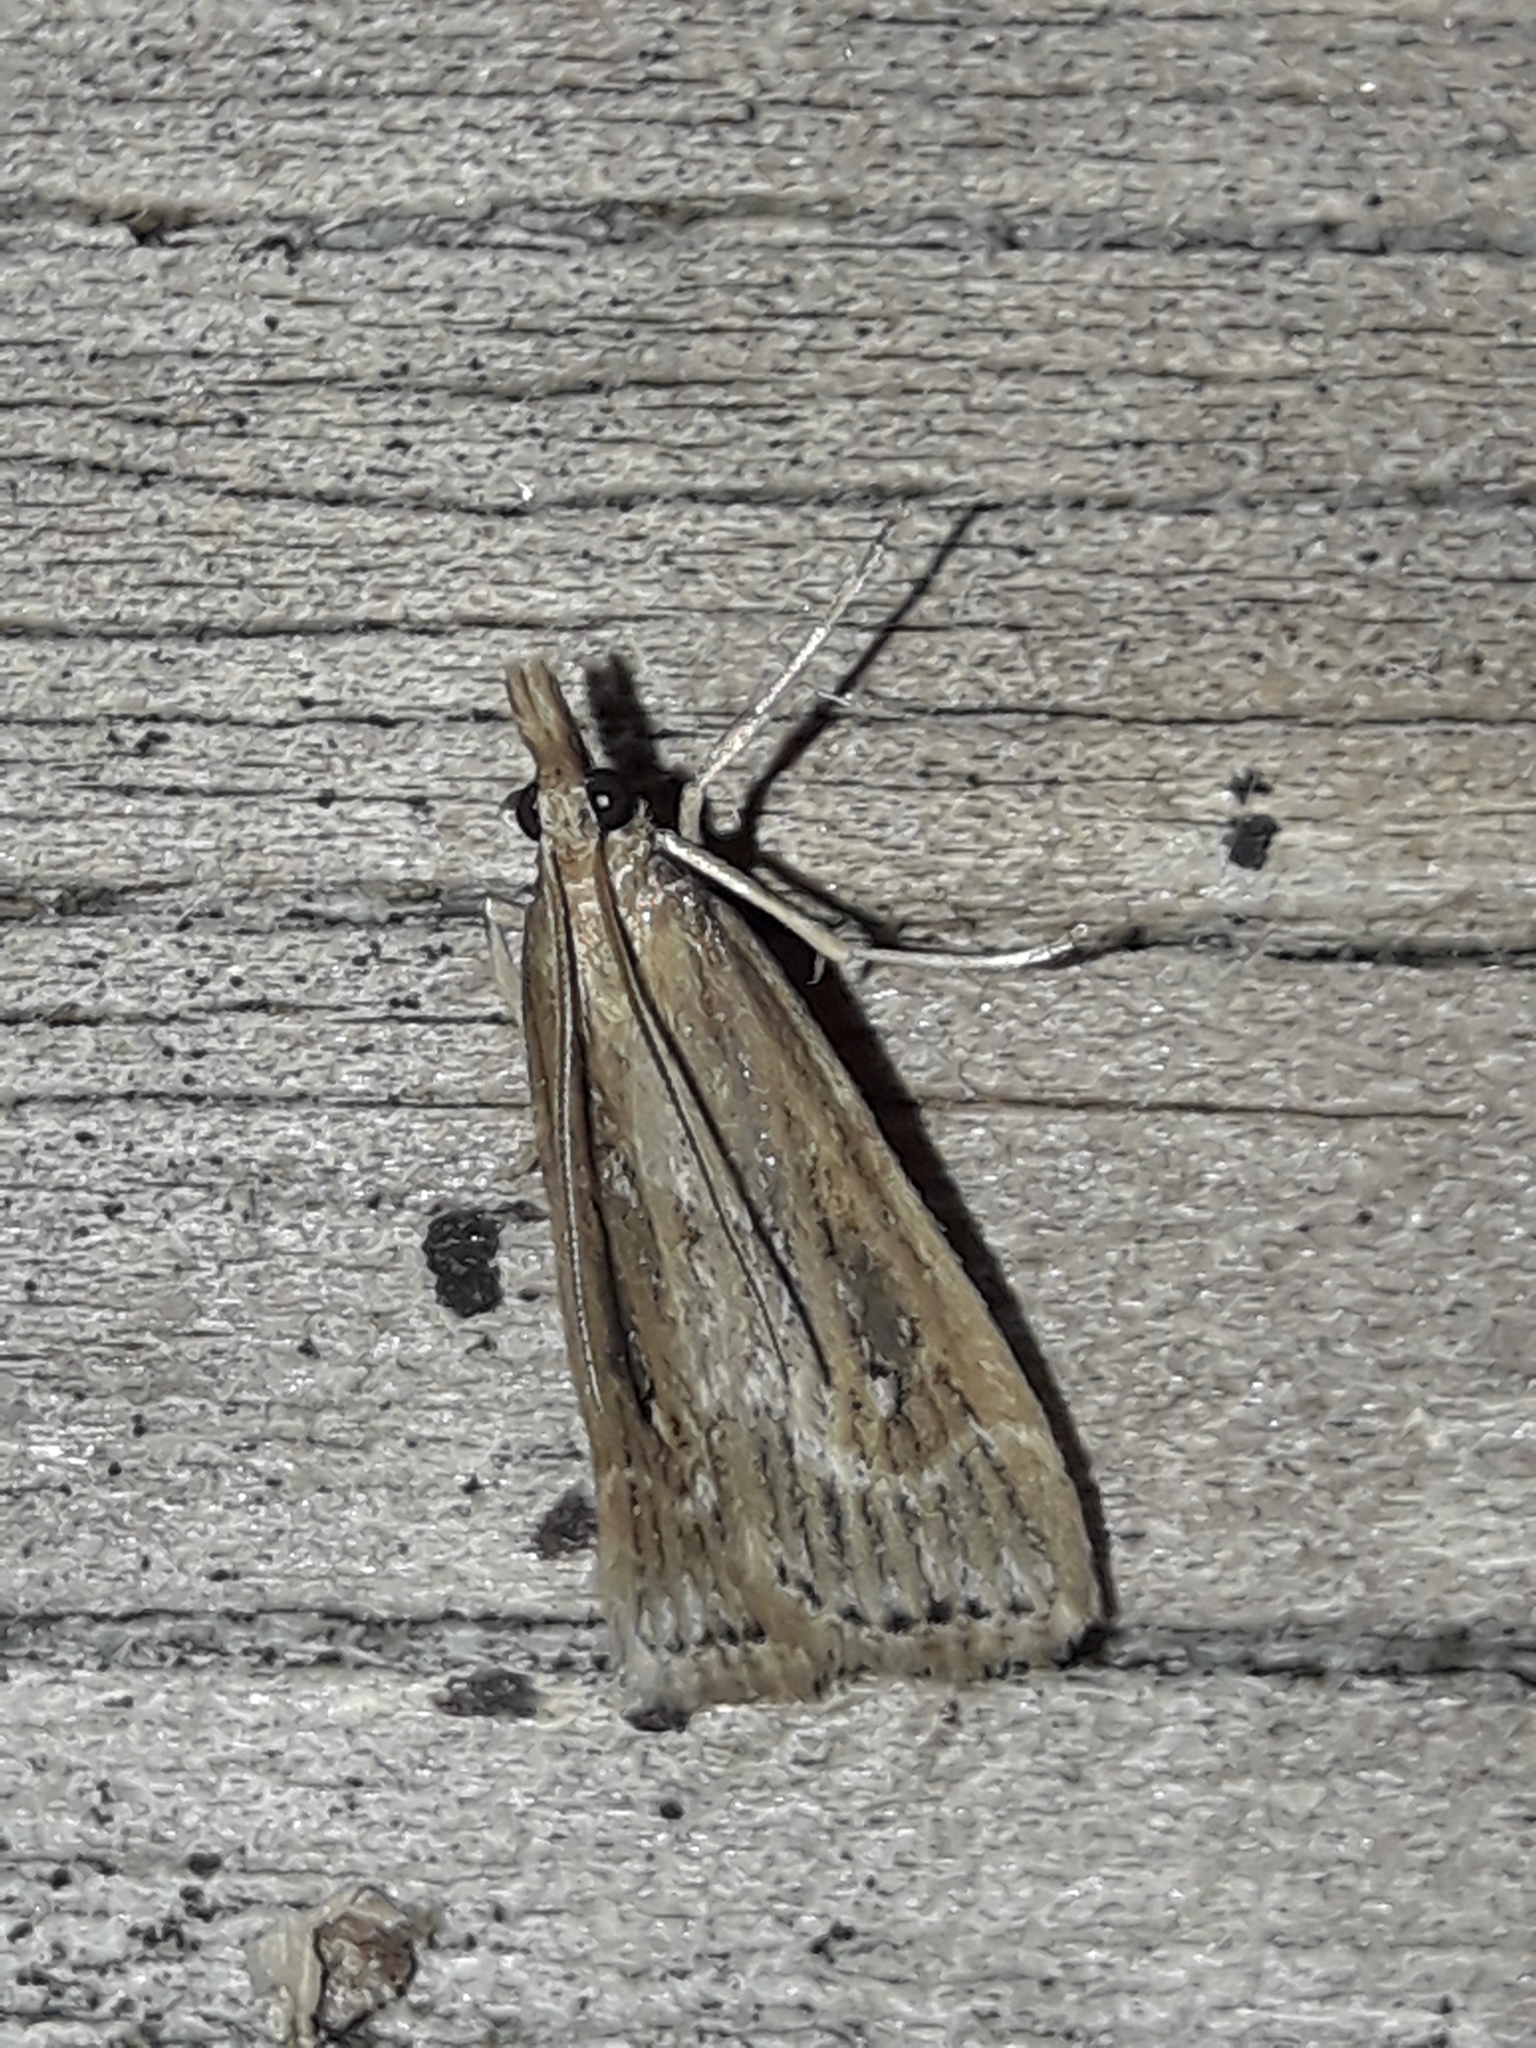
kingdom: Animalia
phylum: Arthropoda
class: Insecta
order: Lepidoptera
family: Crambidae
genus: Eudonia
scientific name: Eudonia octophora
